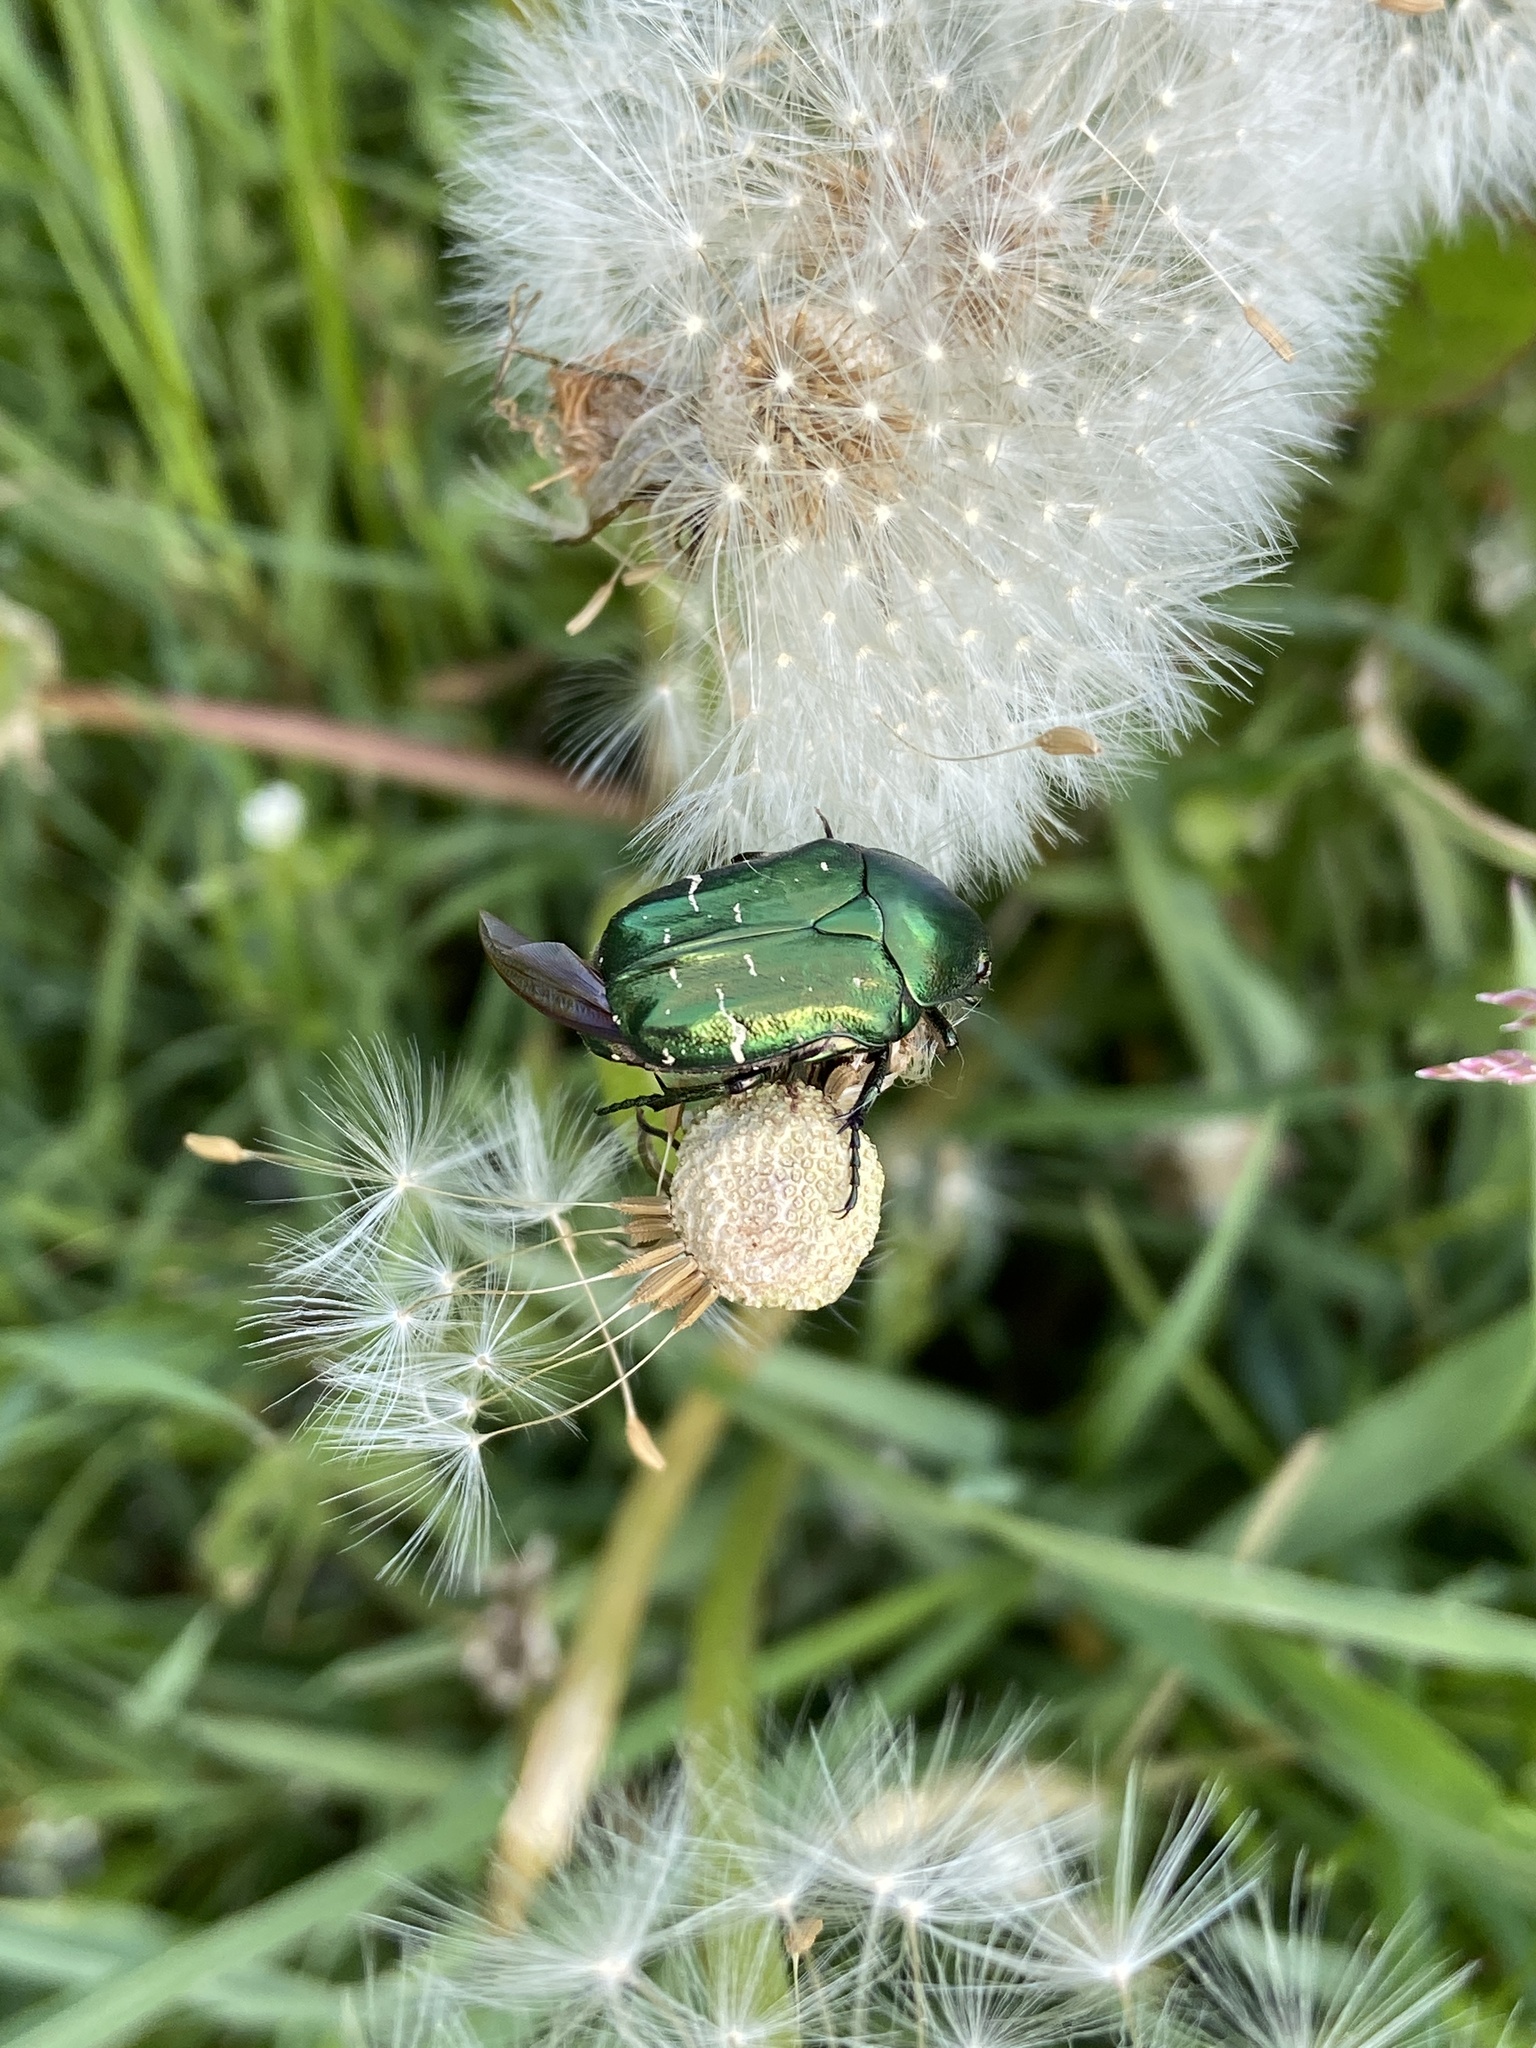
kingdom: Animalia
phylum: Arthropoda
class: Insecta
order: Coleoptera
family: Scarabaeidae
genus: Cetonia
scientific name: Cetonia aurata
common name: Rose chafer
